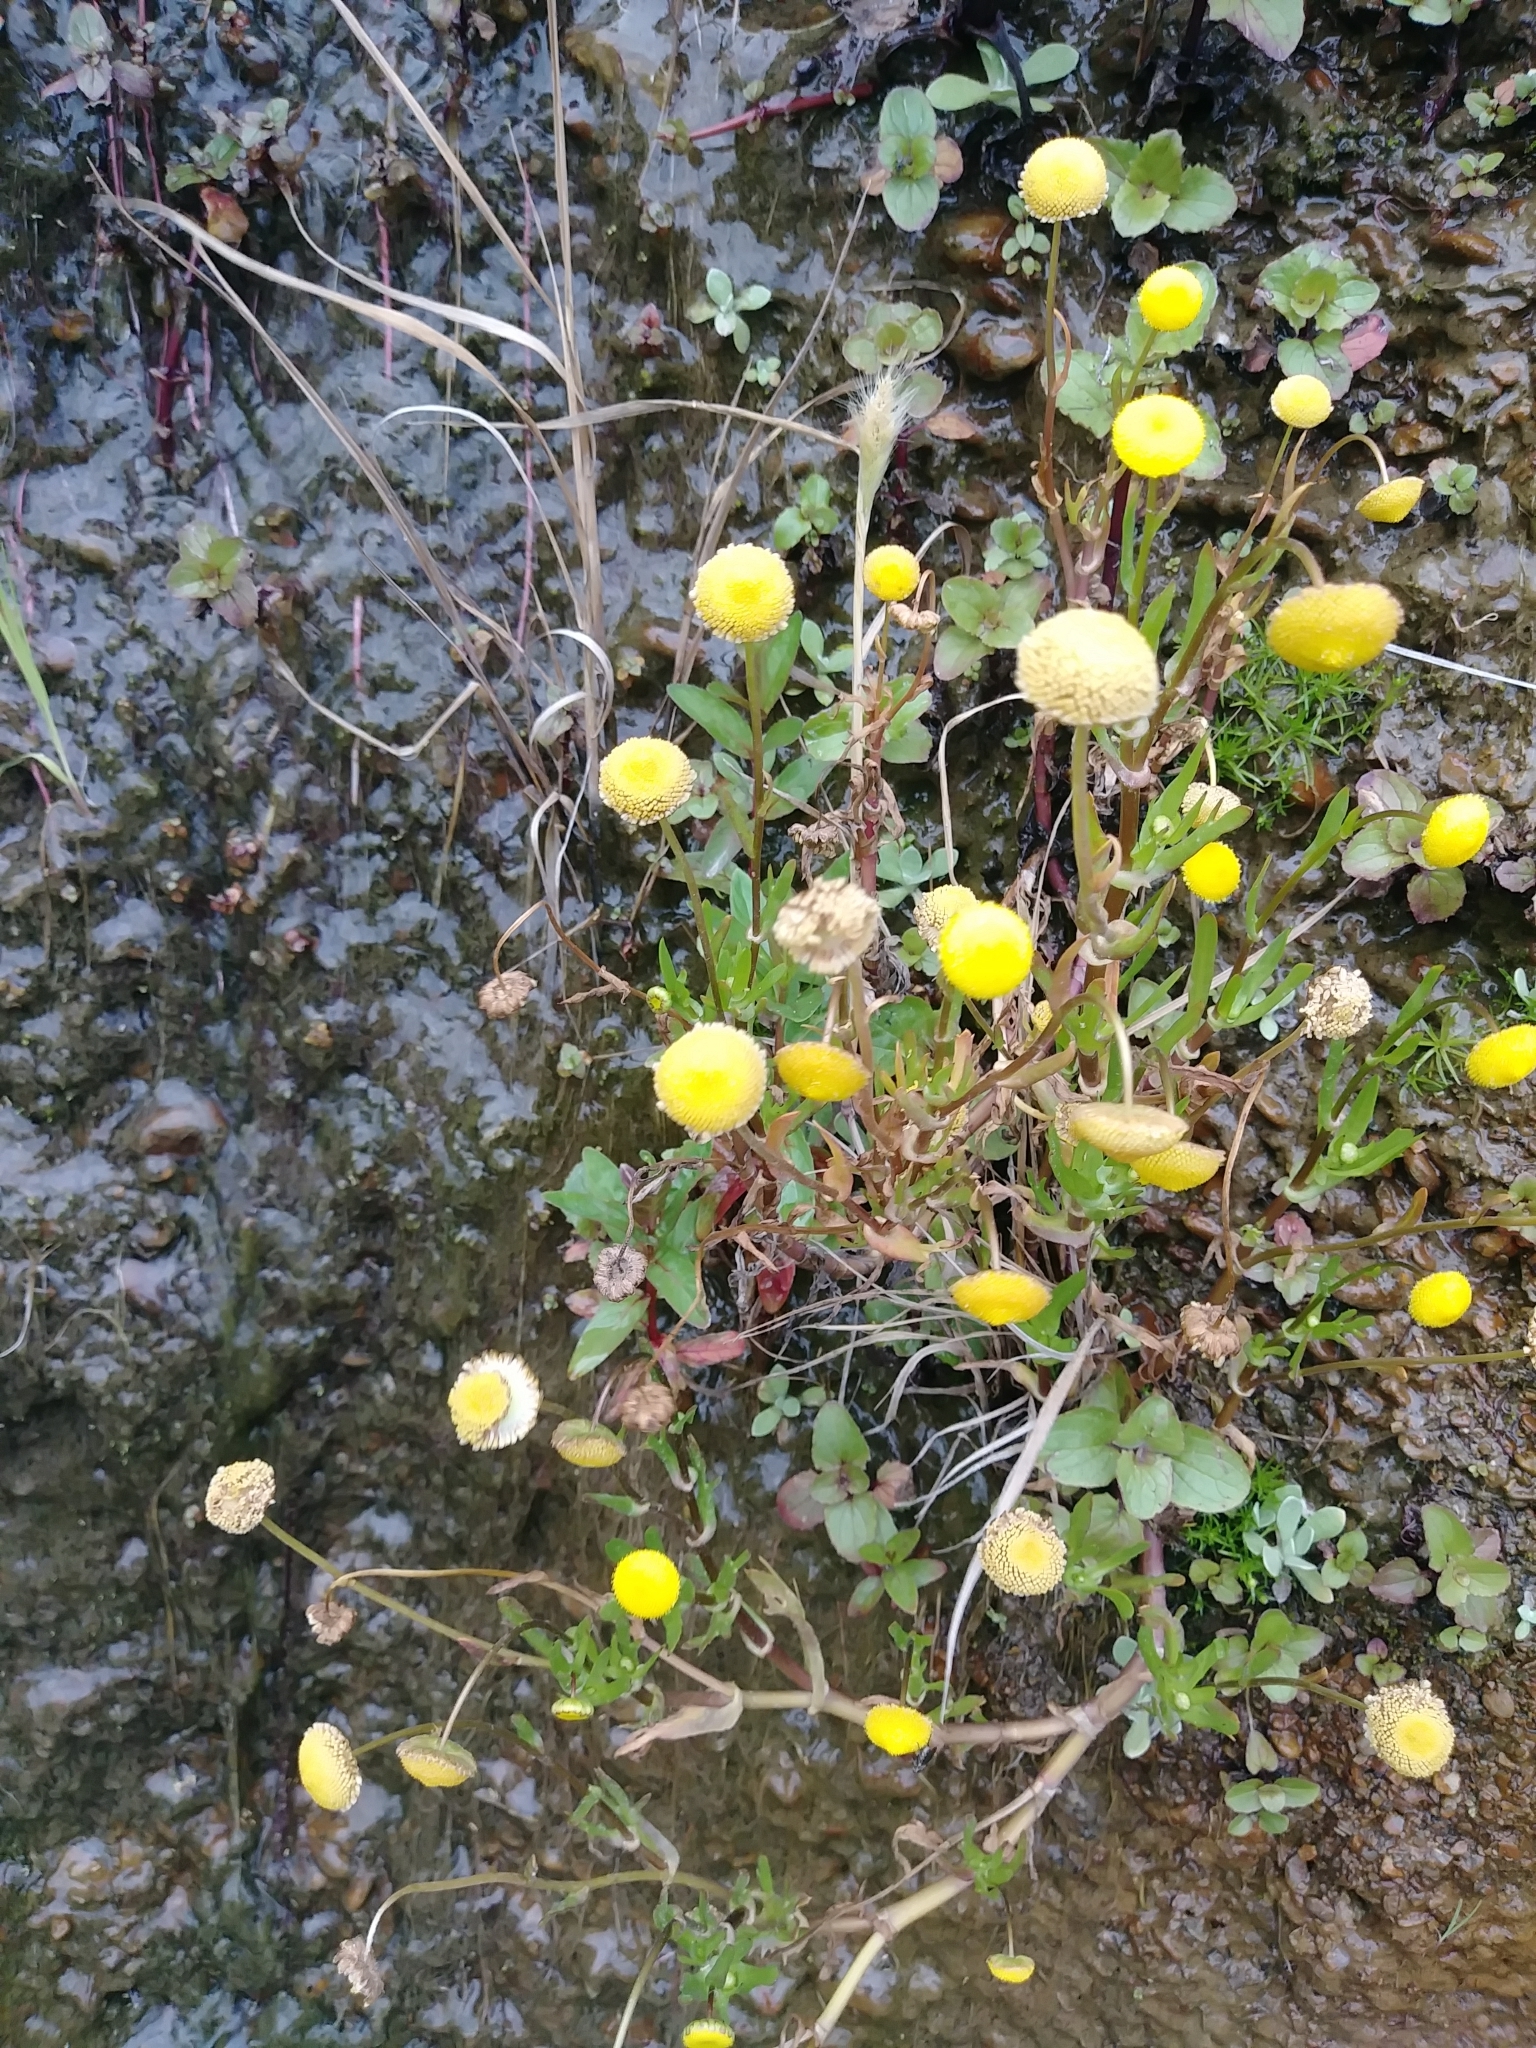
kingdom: Plantae
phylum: Tracheophyta
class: Magnoliopsida
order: Asterales
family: Asteraceae
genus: Cotula
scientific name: Cotula coronopifolia
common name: Buttonweed
